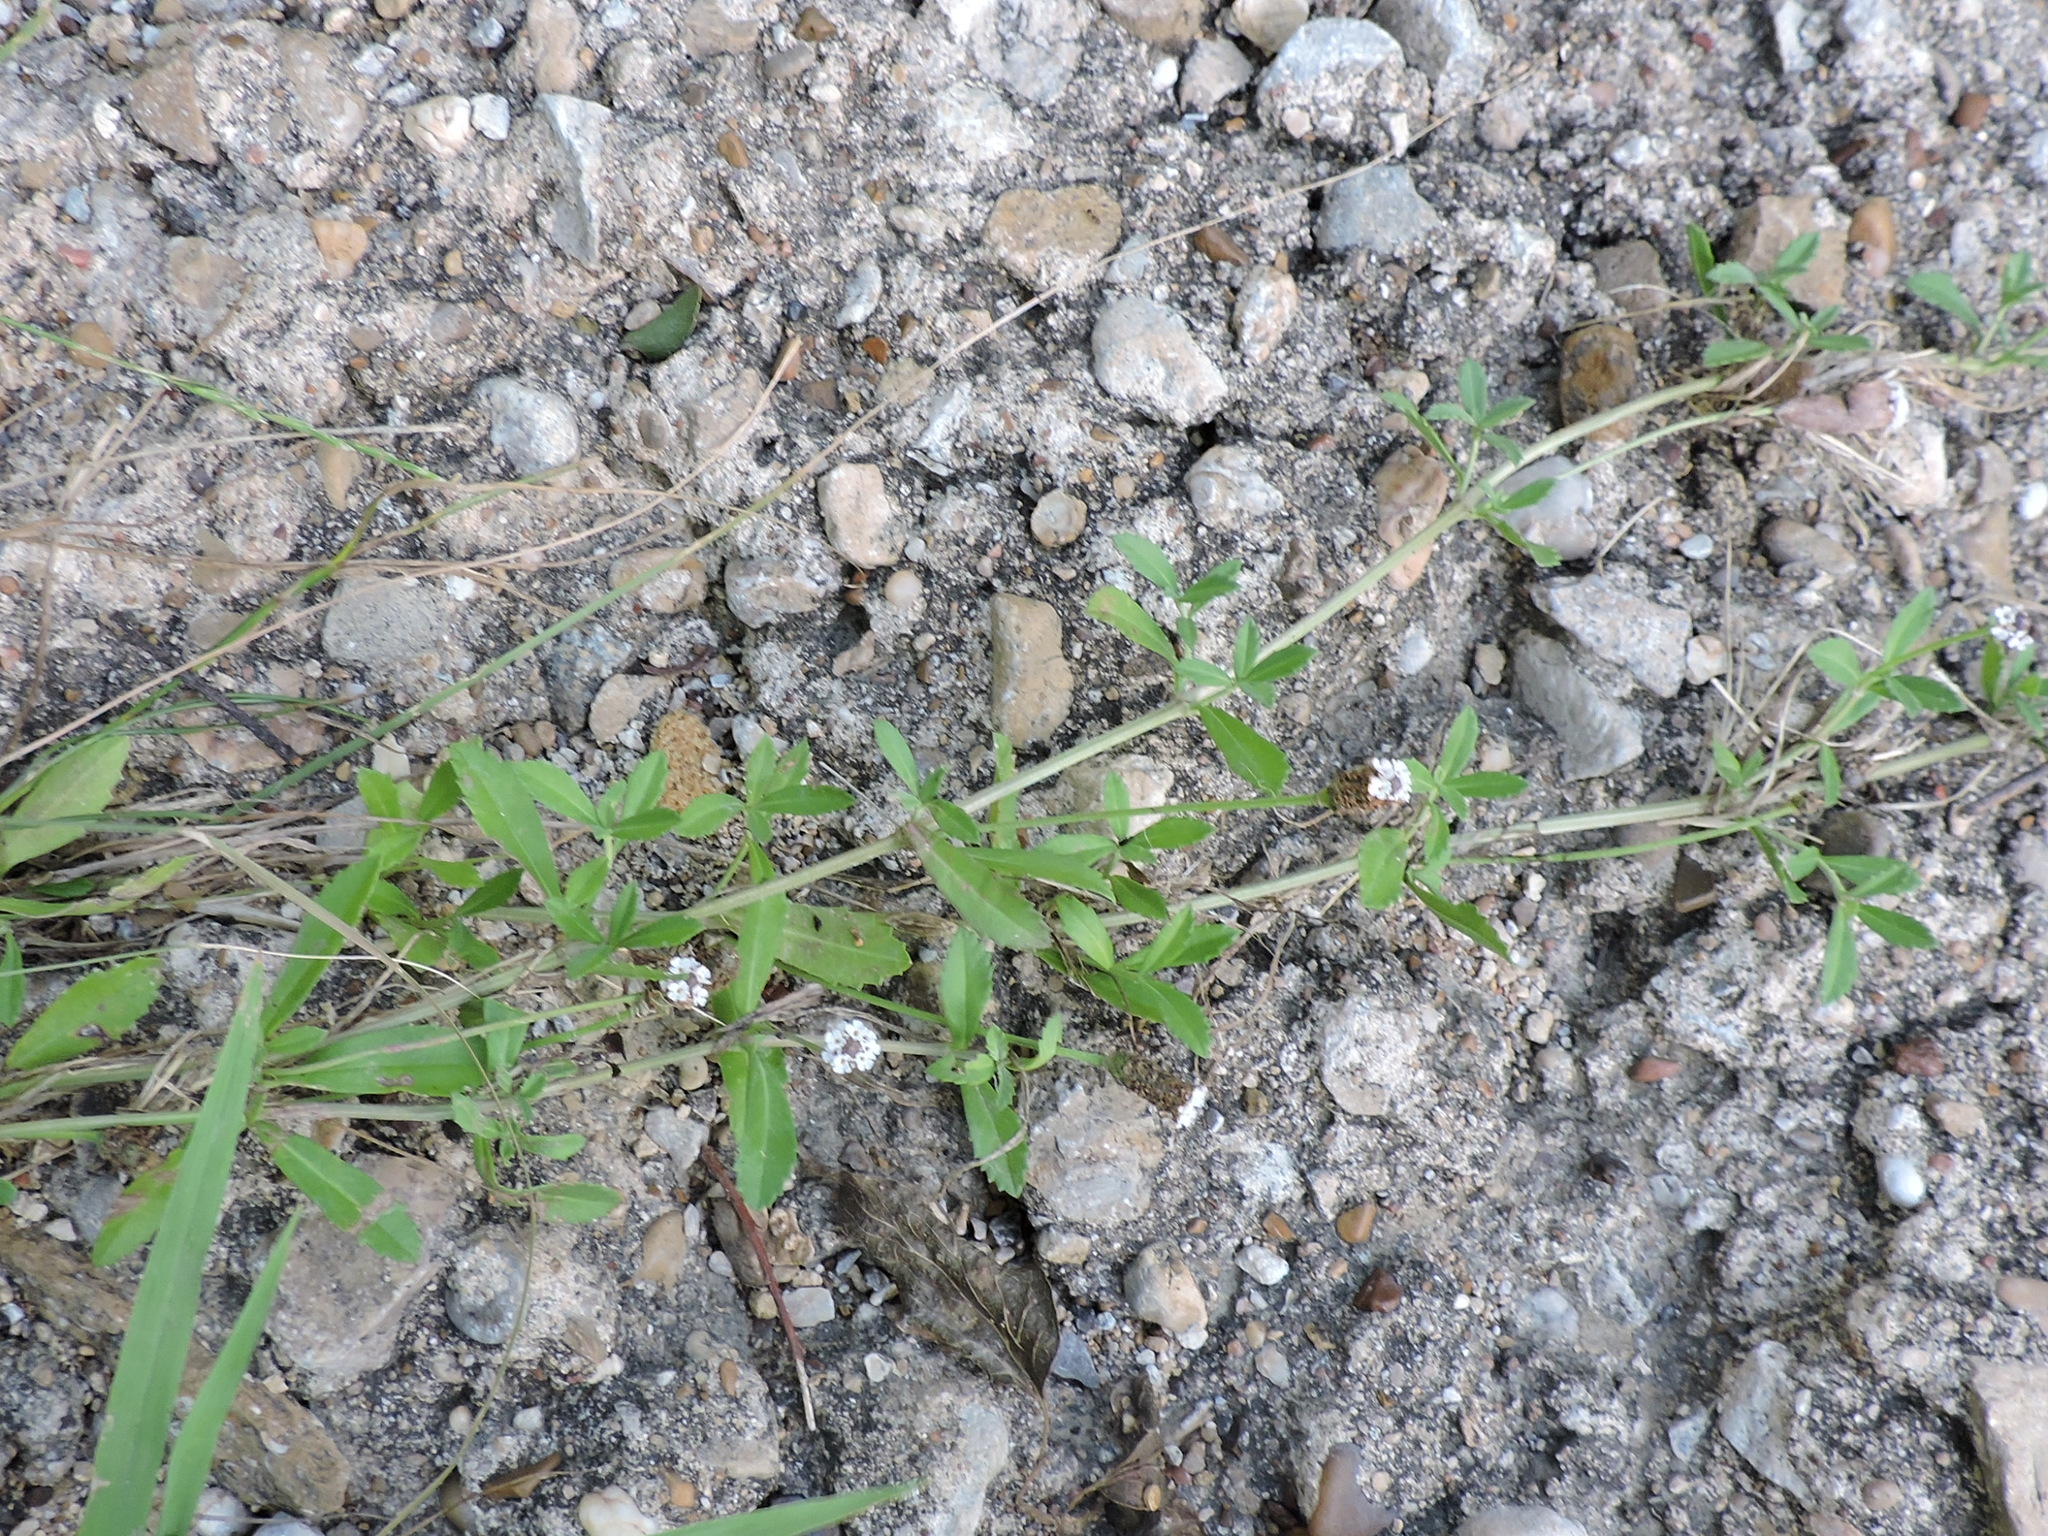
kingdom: Plantae
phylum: Tracheophyta
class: Magnoliopsida
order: Lamiales
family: Verbenaceae
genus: Phyla
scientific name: Phyla nodiflora
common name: Frogfruit
